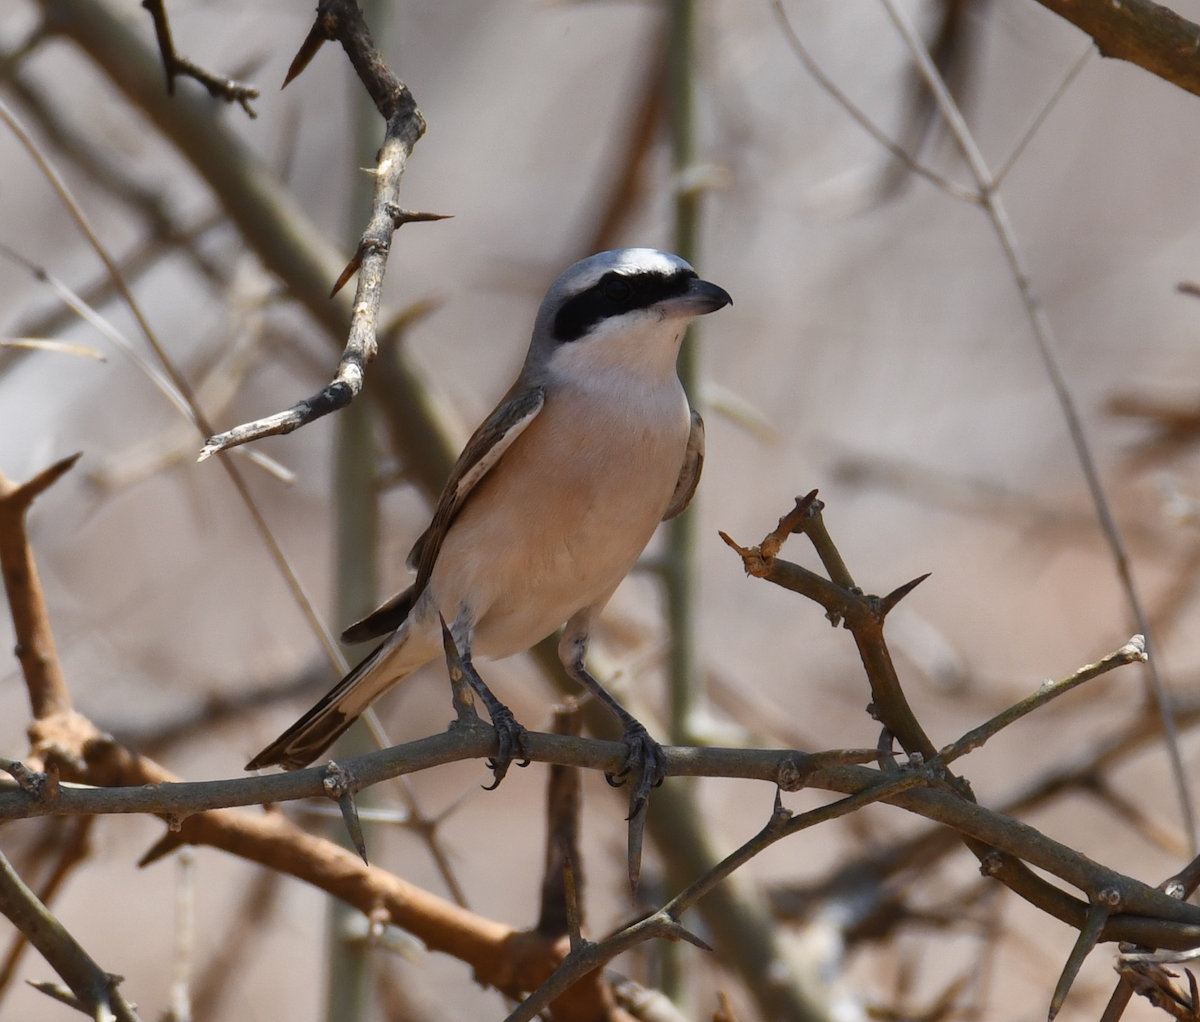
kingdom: Animalia
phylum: Chordata
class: Aves
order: Passeriformes
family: Laniidae
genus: Lanius
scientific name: Lanius collurio
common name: Red-backed shrike
